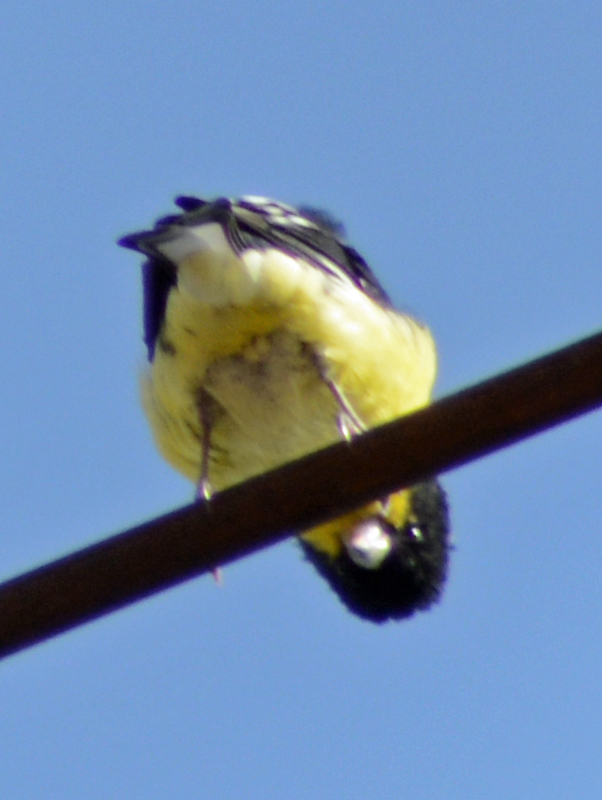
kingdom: Animalia
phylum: Chordata
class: Aves
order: Passeriformes
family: Fringillidae
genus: Spinus
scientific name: Spinus psaltria
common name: Lesser goldfinch
